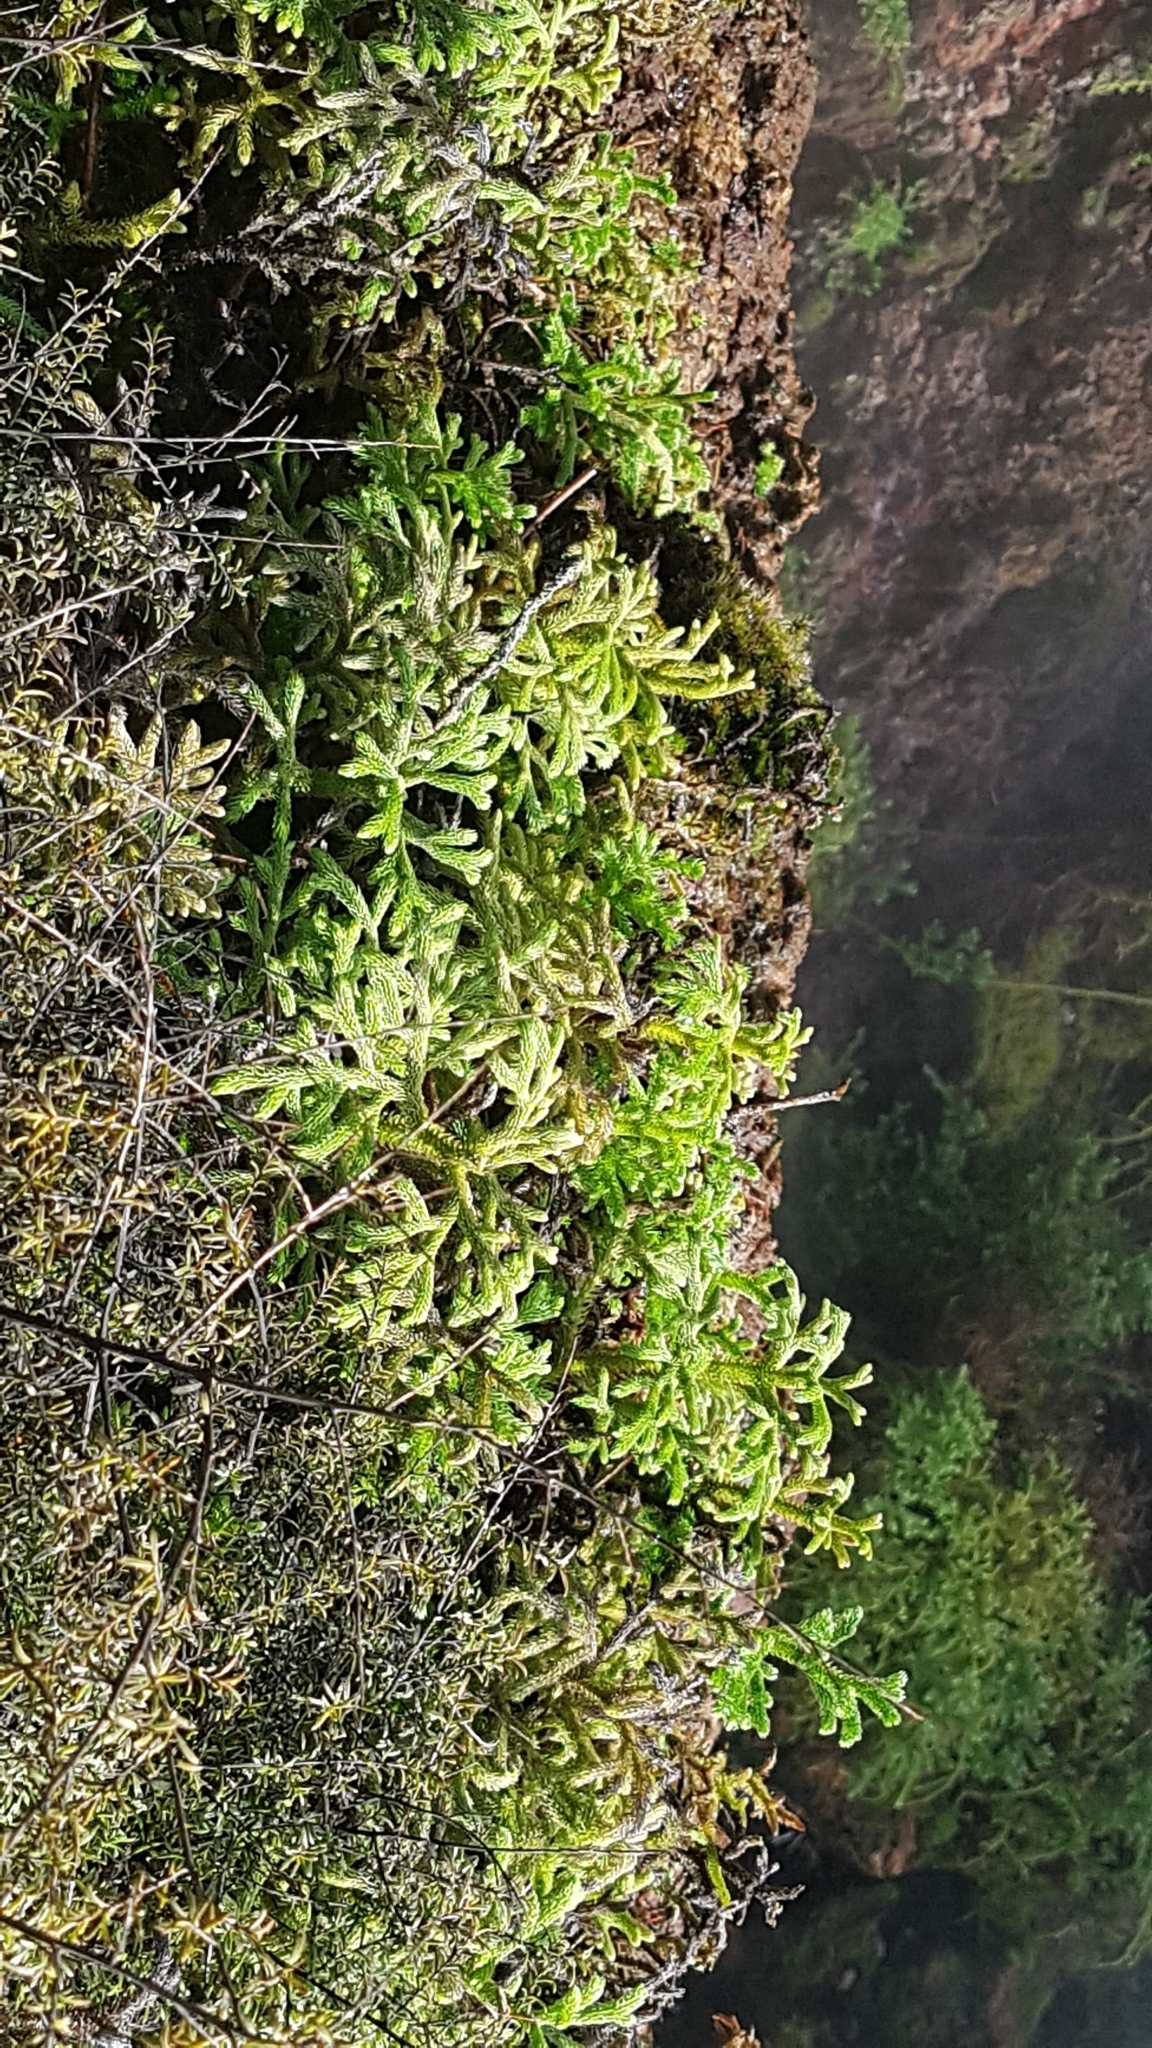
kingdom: Plantae
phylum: Tracheophyta
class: Lycopodiopsida
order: Lycopodiales
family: Lycopodiaceae
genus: Palhinhaea
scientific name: Palhinhaea cernua
